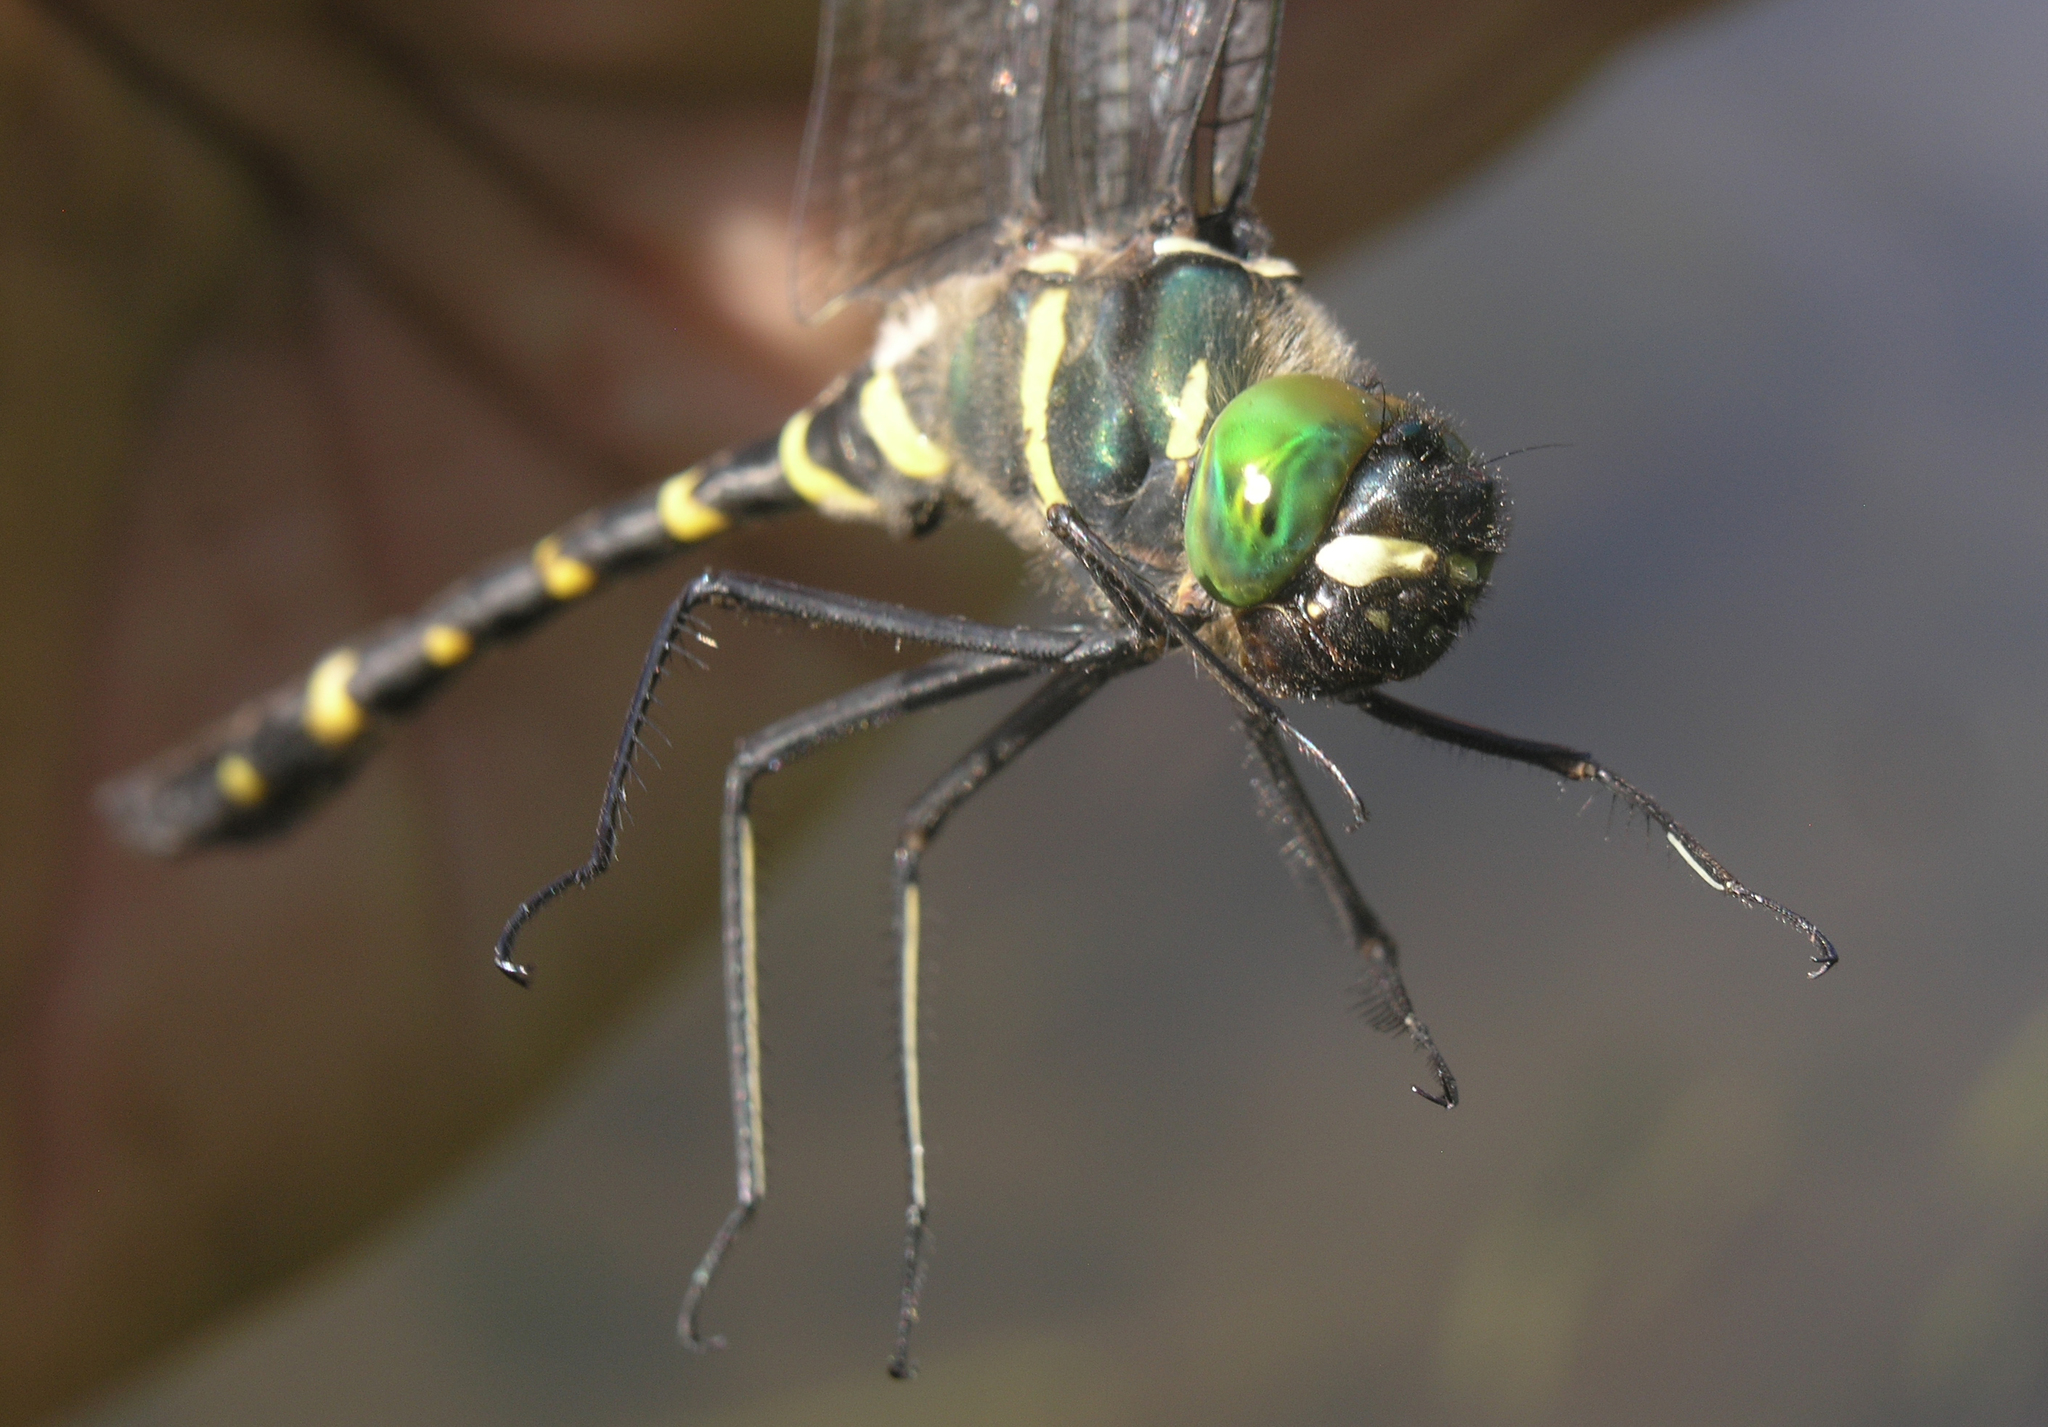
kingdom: Animalia
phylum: Arthropoda
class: Insecta
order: Odonata
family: Macromiidae
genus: Macromia
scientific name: Macromia manchurica
